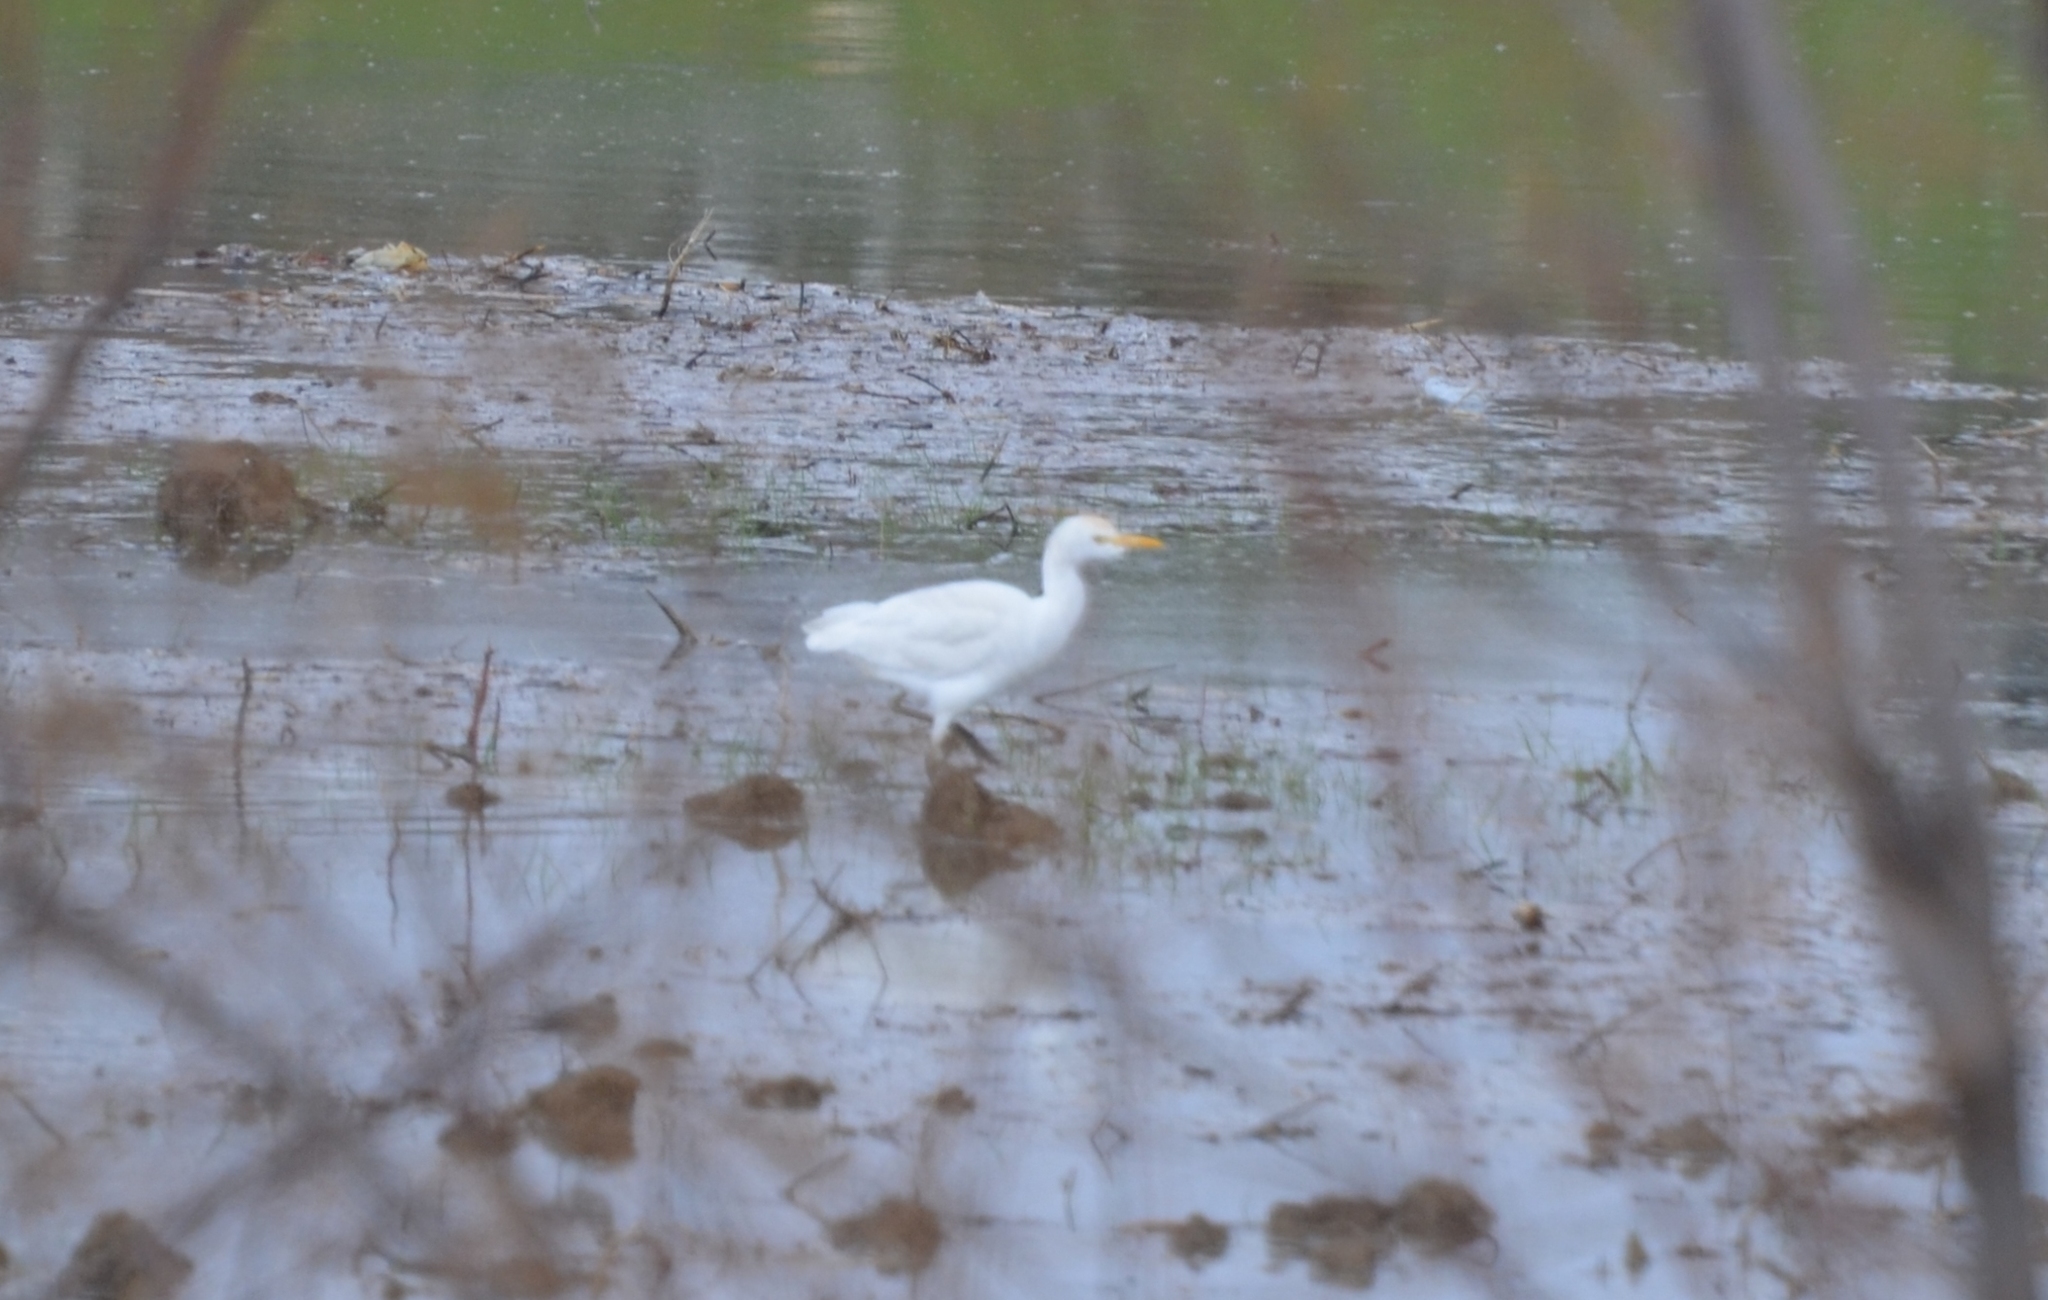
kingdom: Animalia
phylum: Chordata
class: Aves
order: Pelecaniformes
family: Ardeidae
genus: Bubulcus
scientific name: Bubulcus ibis
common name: Cattle egret
